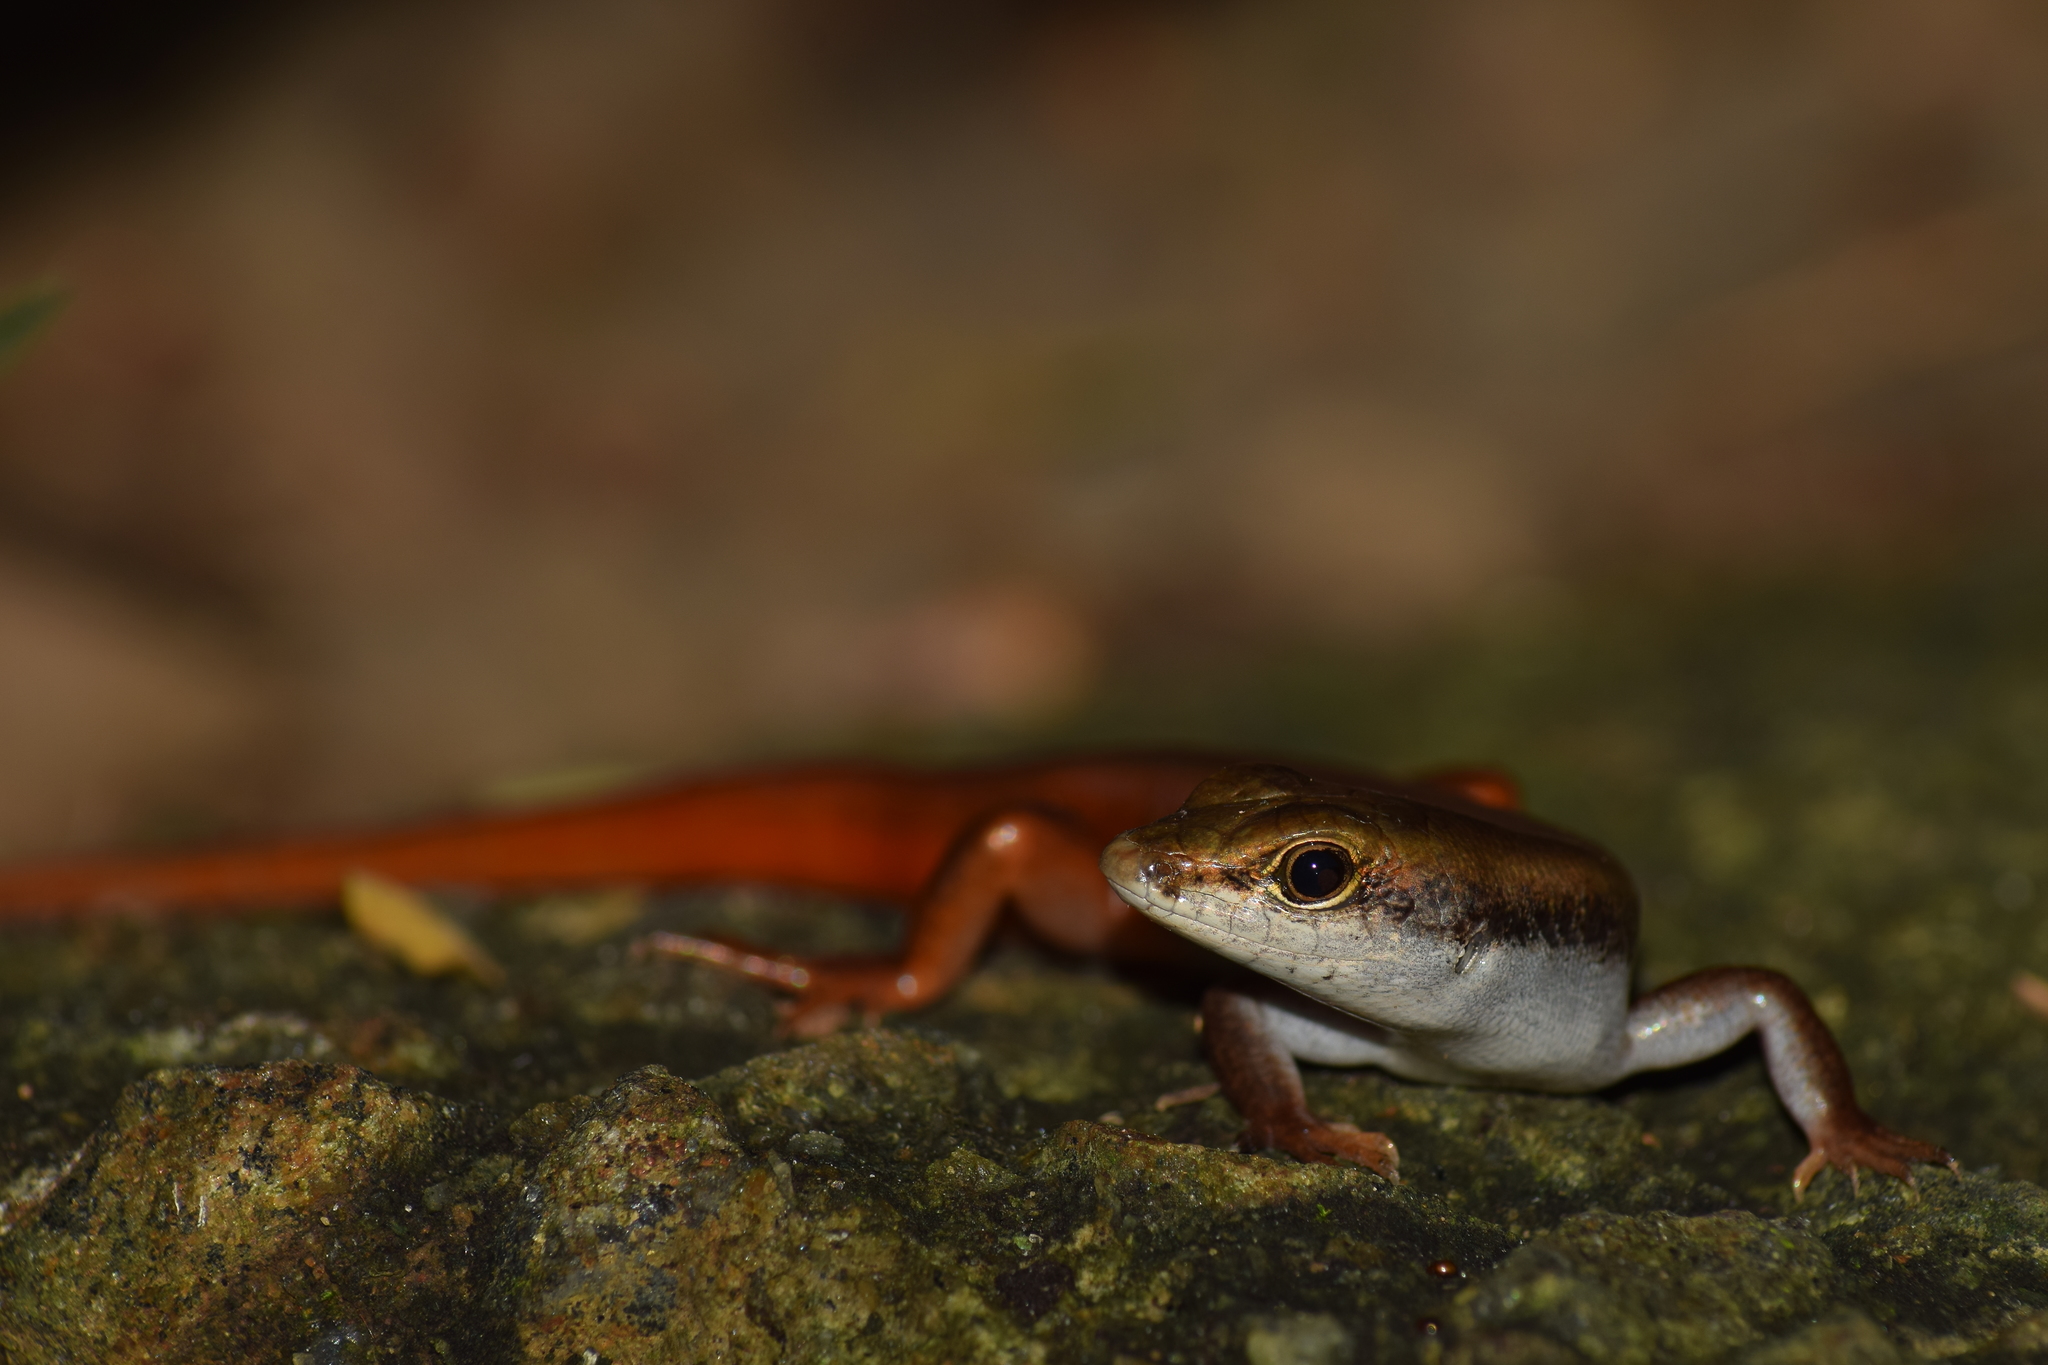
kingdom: Animalia
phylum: Chordata
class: Squamata
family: Scincidae
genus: Sphenomorphus
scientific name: Sphenomorphus dussumieri
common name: Dussumier's forest skink
